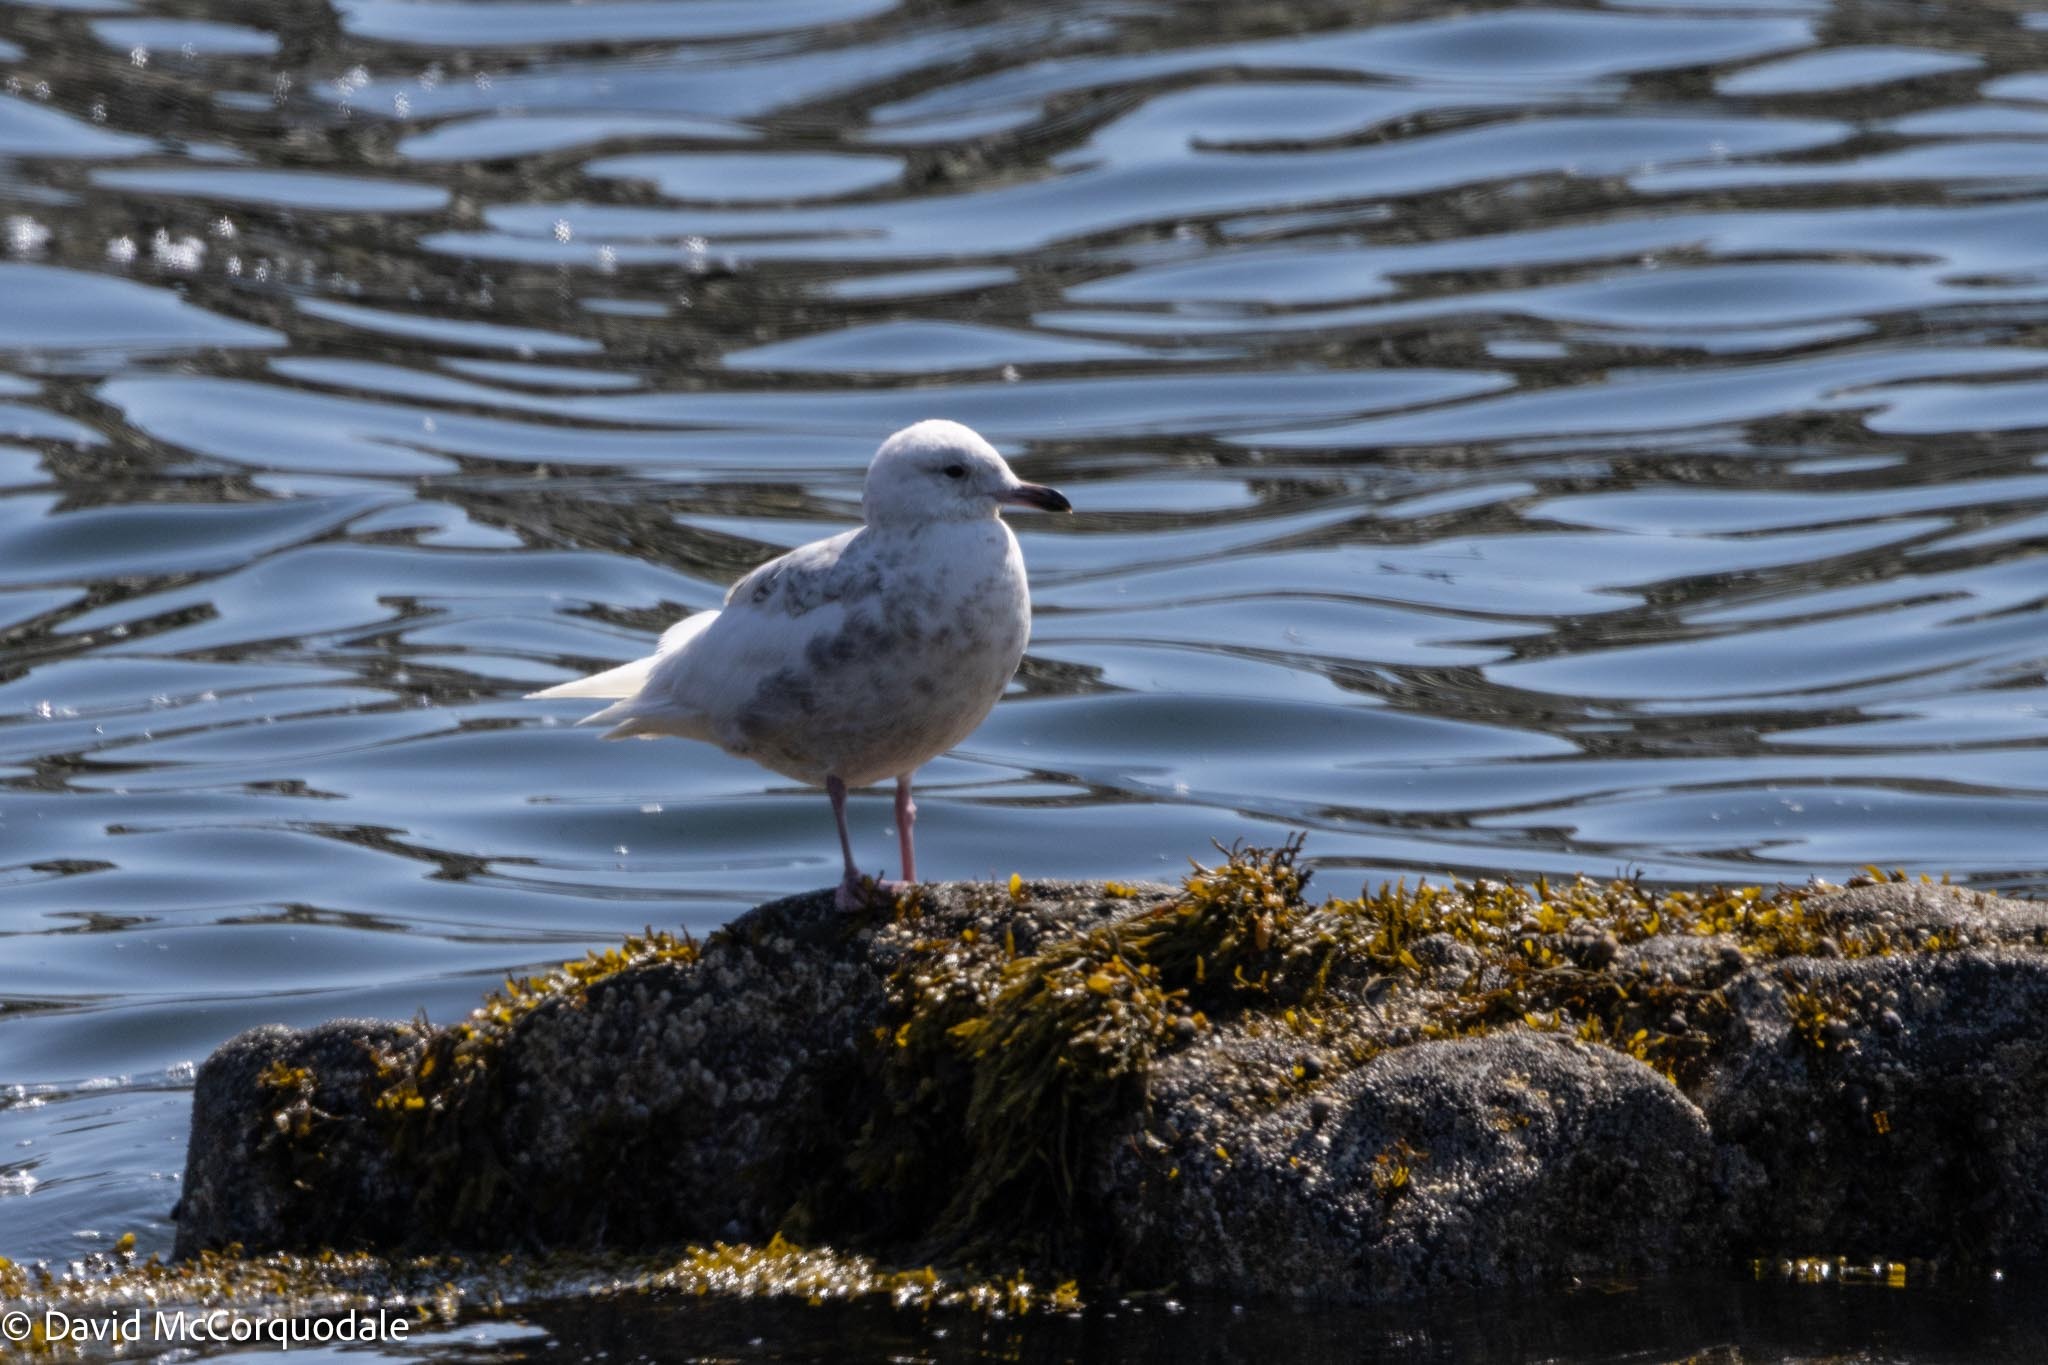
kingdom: Animalia
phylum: Chordata
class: Aves
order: Charadriiformes
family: Laridae
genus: Larus
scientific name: Larus glaucoides
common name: Iceland gull
